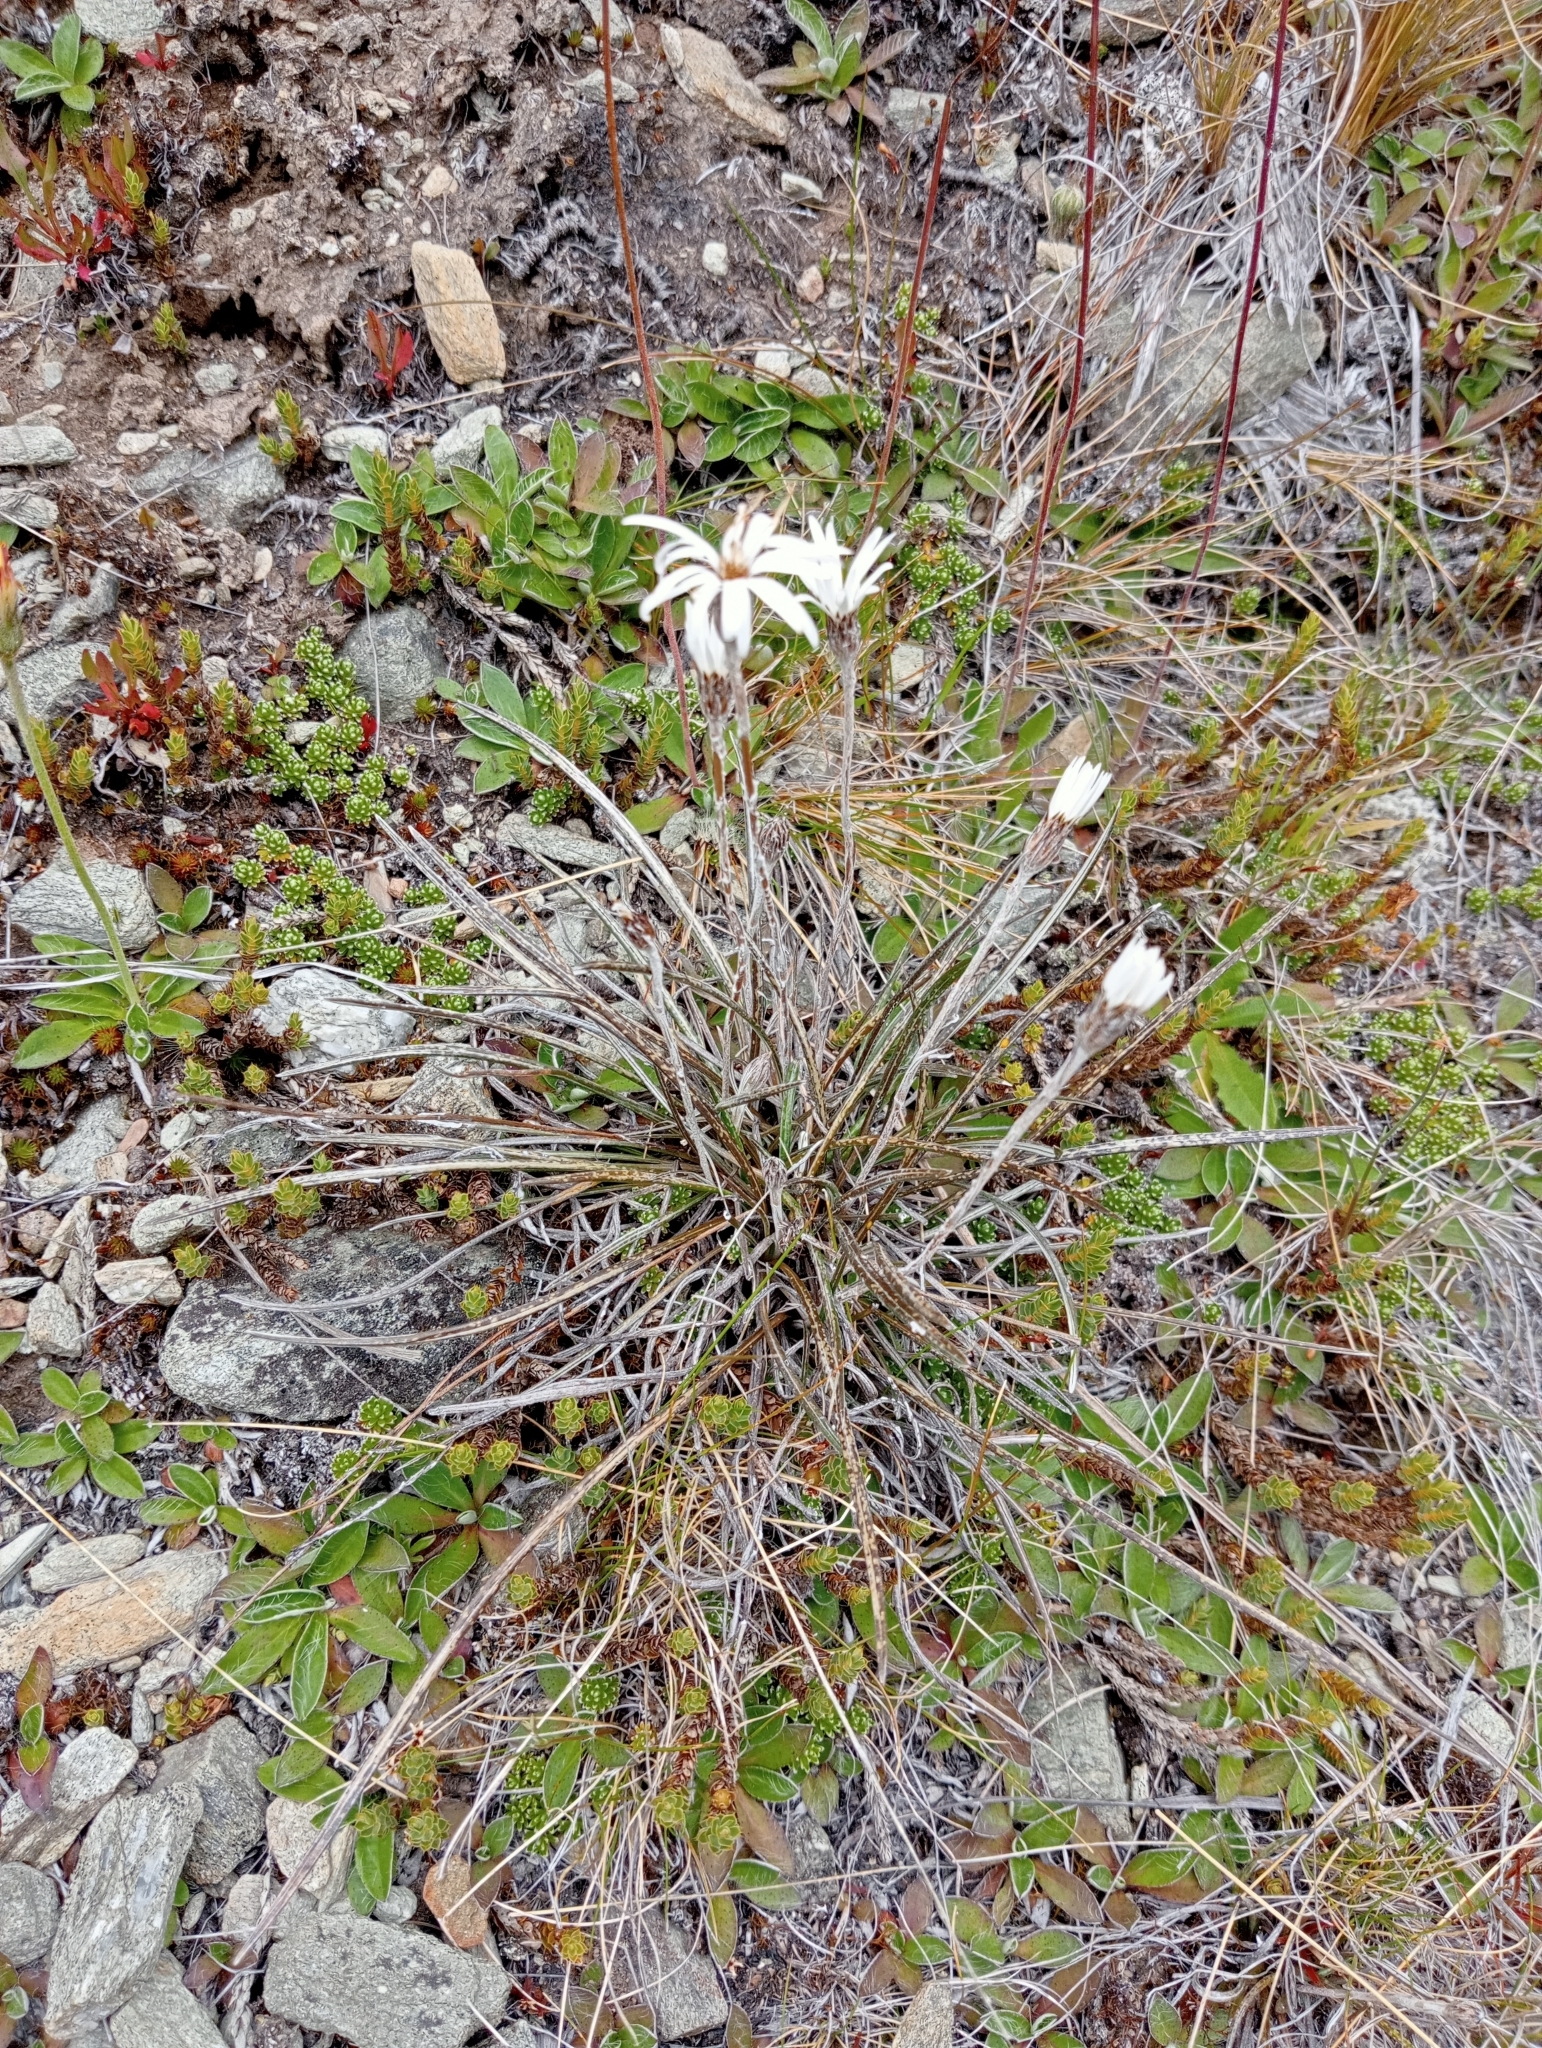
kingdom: Plantae
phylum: Tracheophyta
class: Magnoliopsida
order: Asterales
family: Asteraceae
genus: Celmisia
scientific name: Celmisia gracilenta
